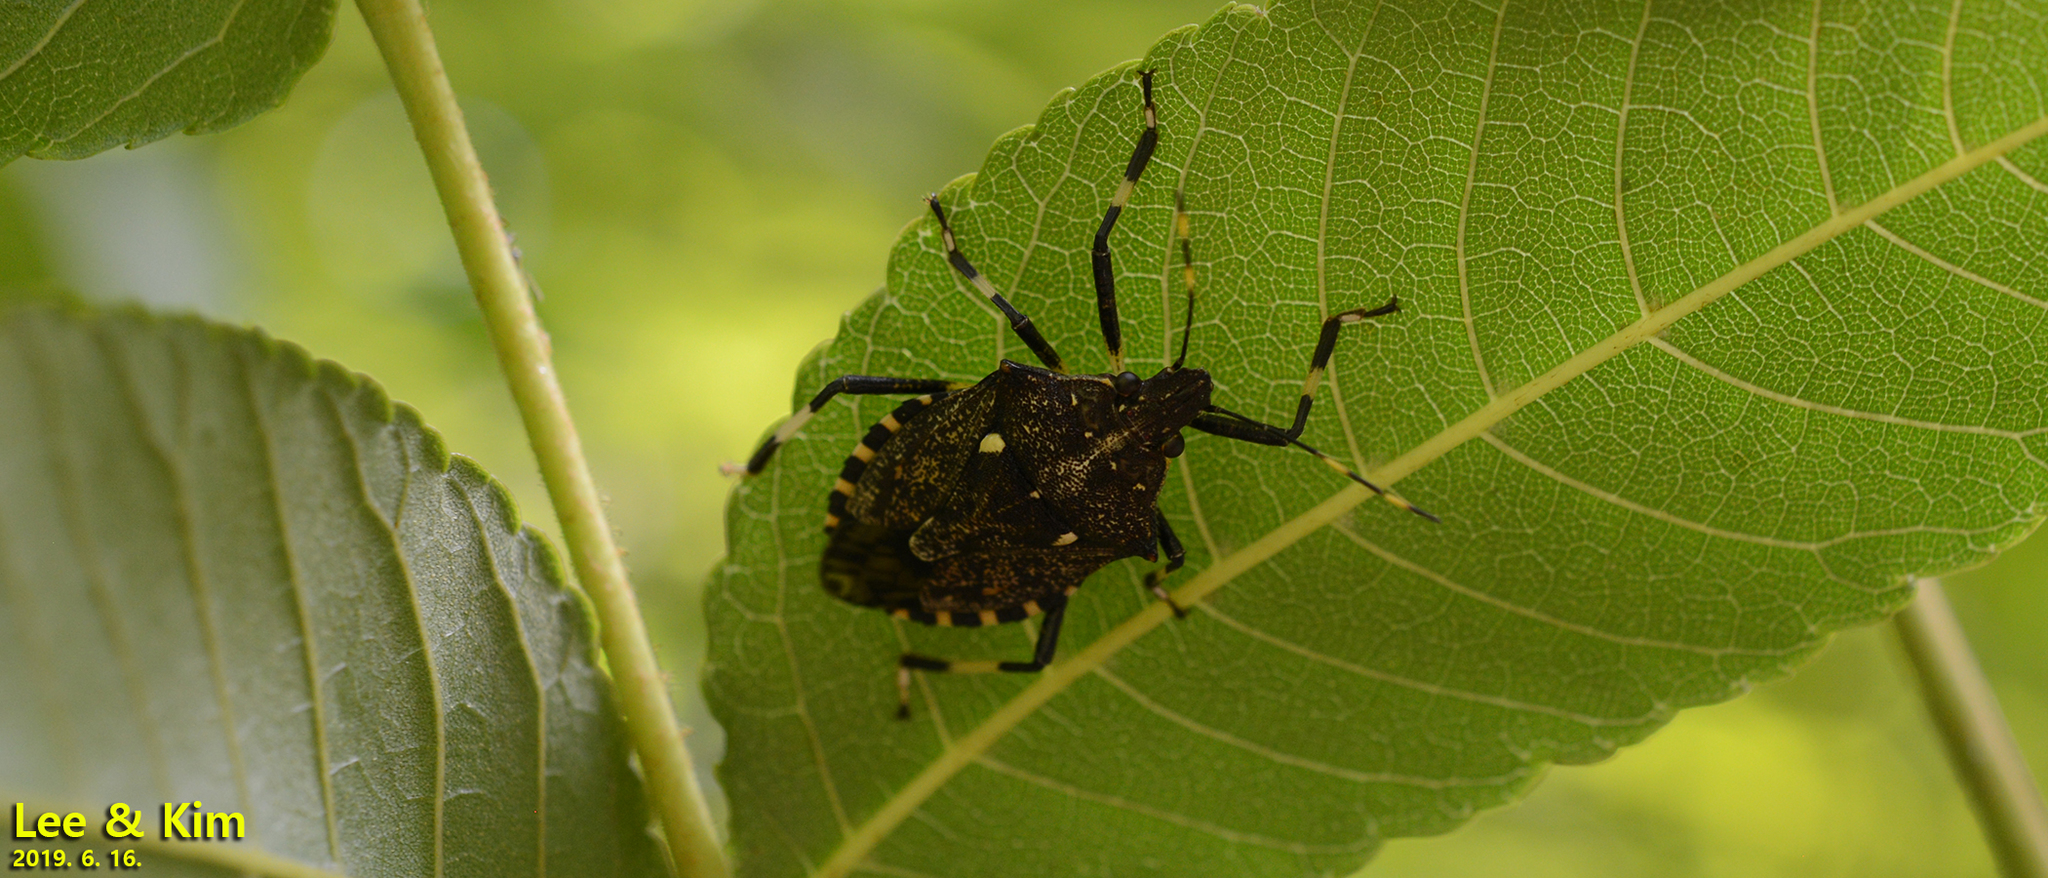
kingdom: Animalia
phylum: Arthropoda
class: Insecta
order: Hemiptera
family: Pentatomidae
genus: Dalpada
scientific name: Dalpada cinctipes
